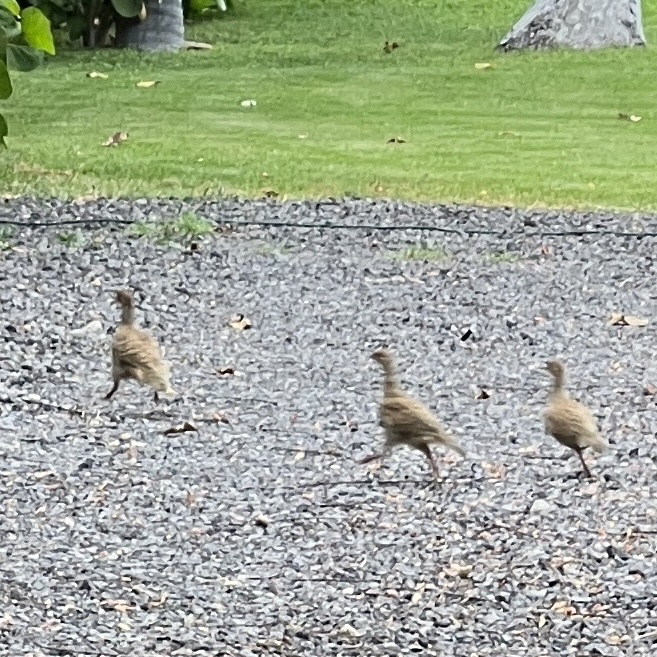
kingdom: Animalia
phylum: Chordata
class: Aves
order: Galliformes
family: Phasianidae
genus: Ortygornis
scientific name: Ortygornis pondicerianus
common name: Grey francolin
